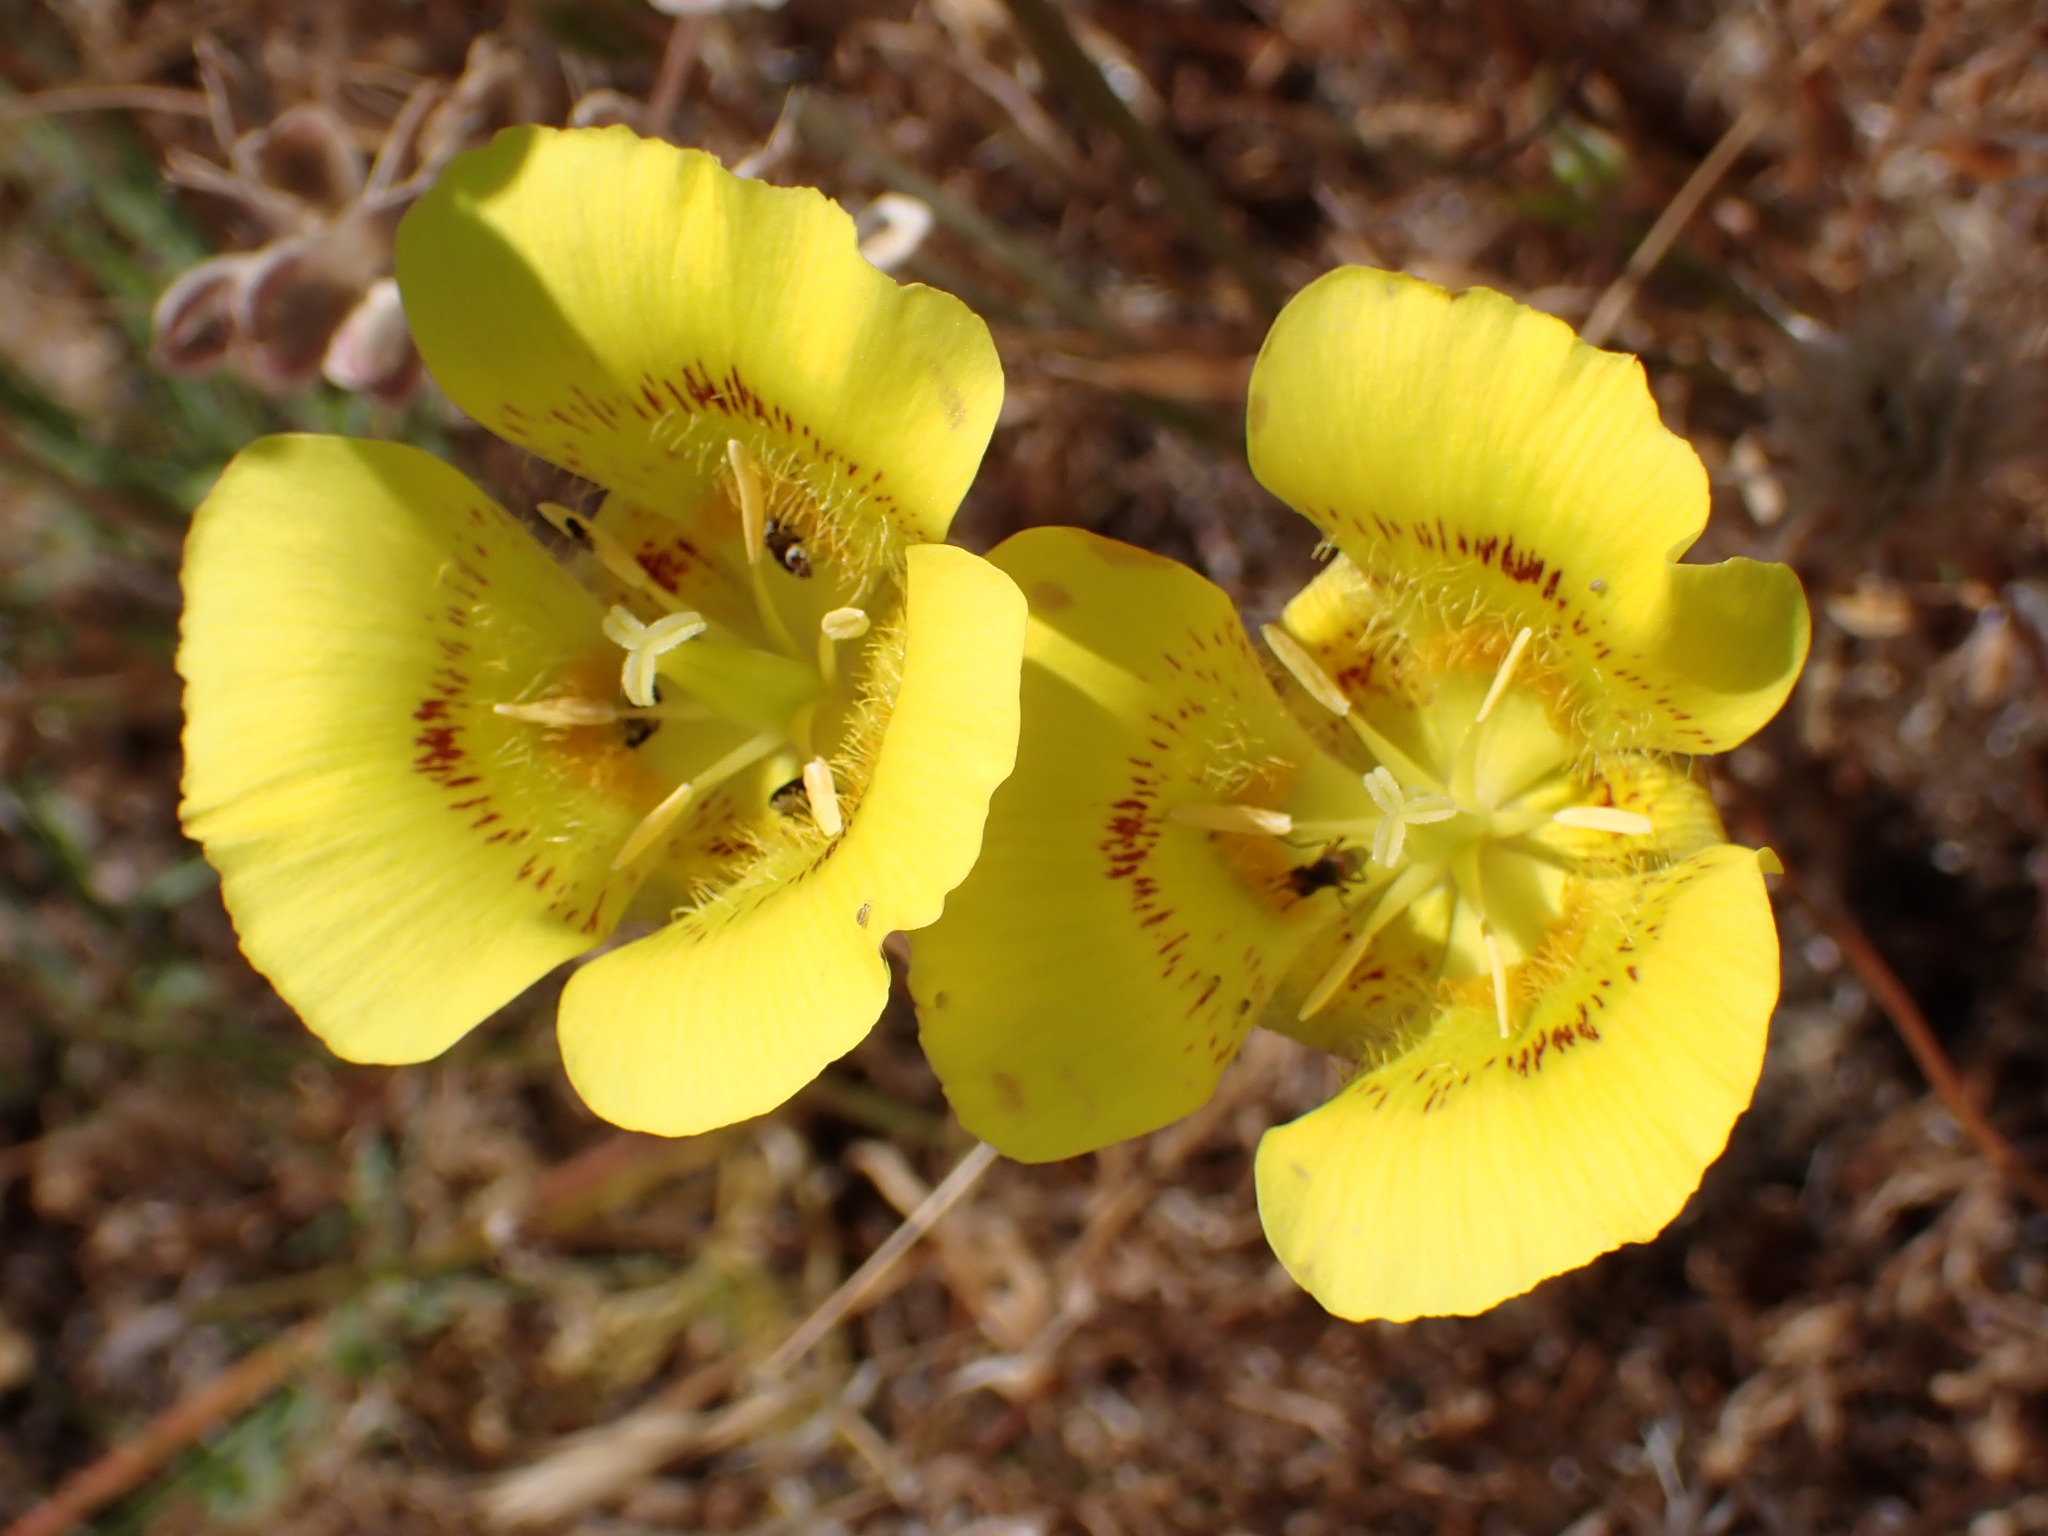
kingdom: Plantae
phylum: Tracheophyta
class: Liliopsida
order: Liliales
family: Liliaceae
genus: Calochortus
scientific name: Calochortus luteus
